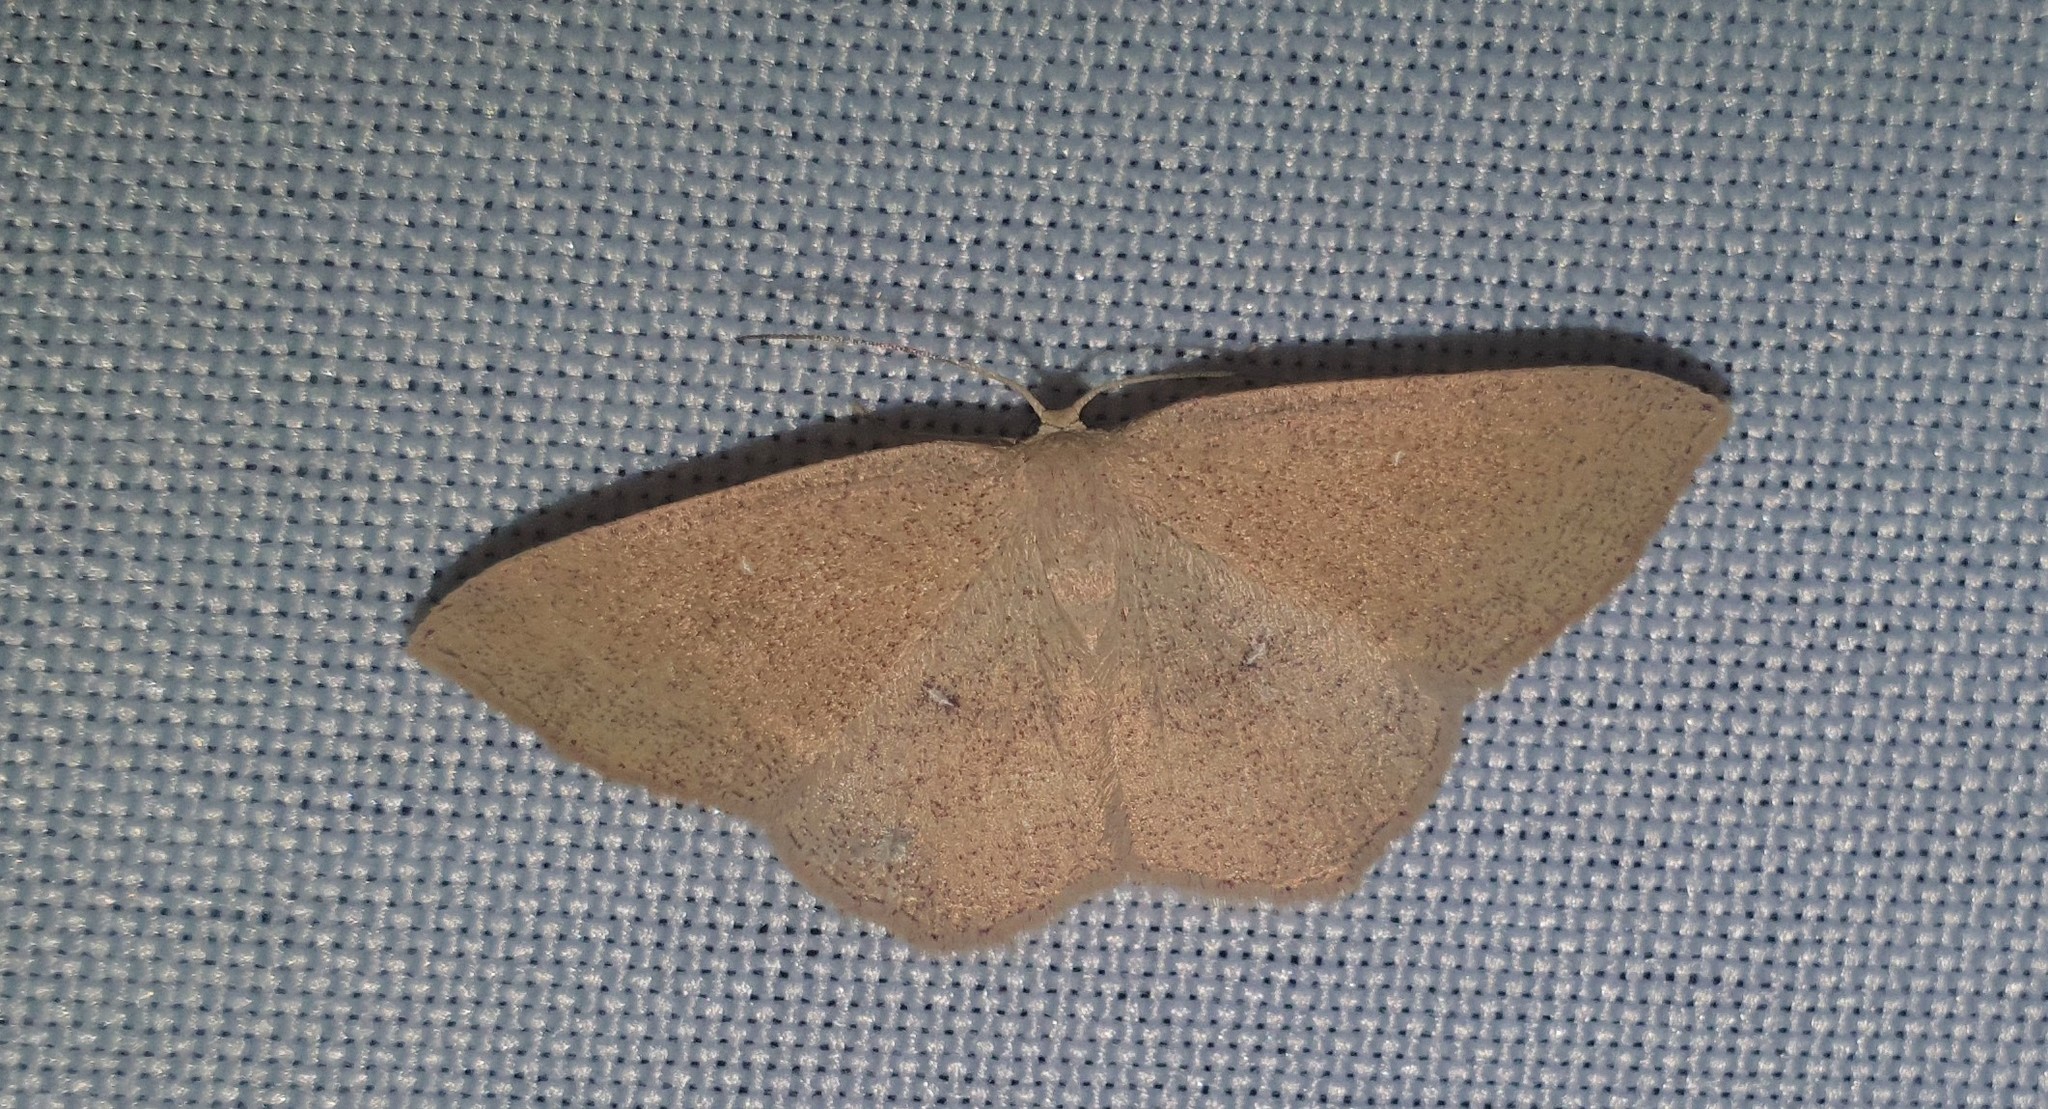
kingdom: Animalia
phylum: Arthropoda
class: Insecta
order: Lepidoptera
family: Geometridae
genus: Cyclophora
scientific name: Cyclophora linearia
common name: Clay triple-lines
